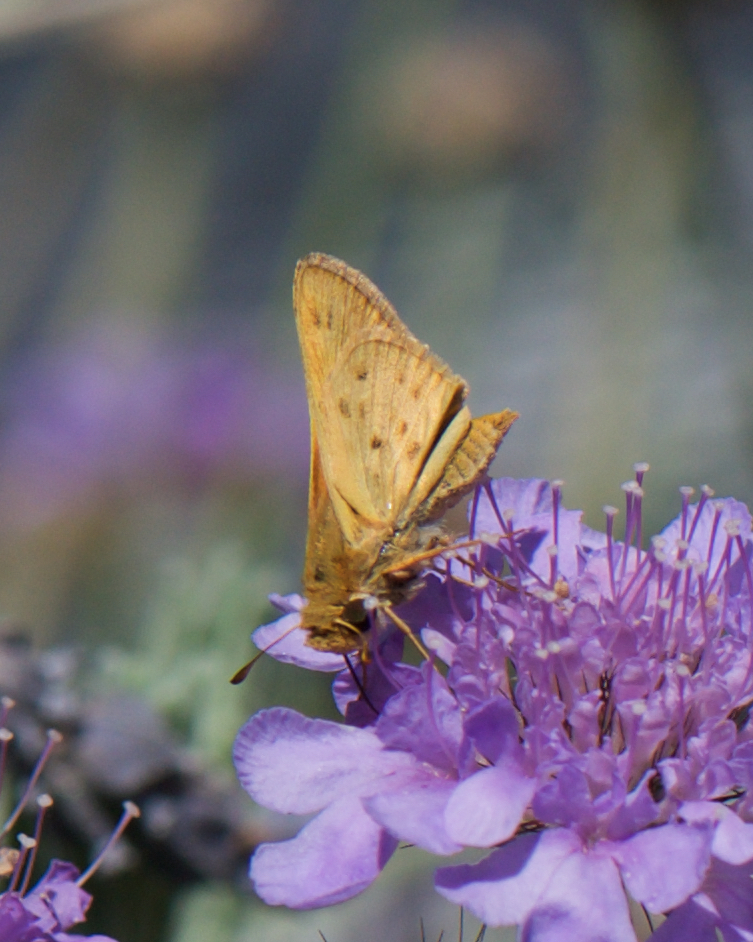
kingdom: Animalia
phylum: Arthropoda
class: Insecta
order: Lepidoptera
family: Hesperiidae
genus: Hylephila
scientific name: Hylephila phyleus
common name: Fiery skipper
